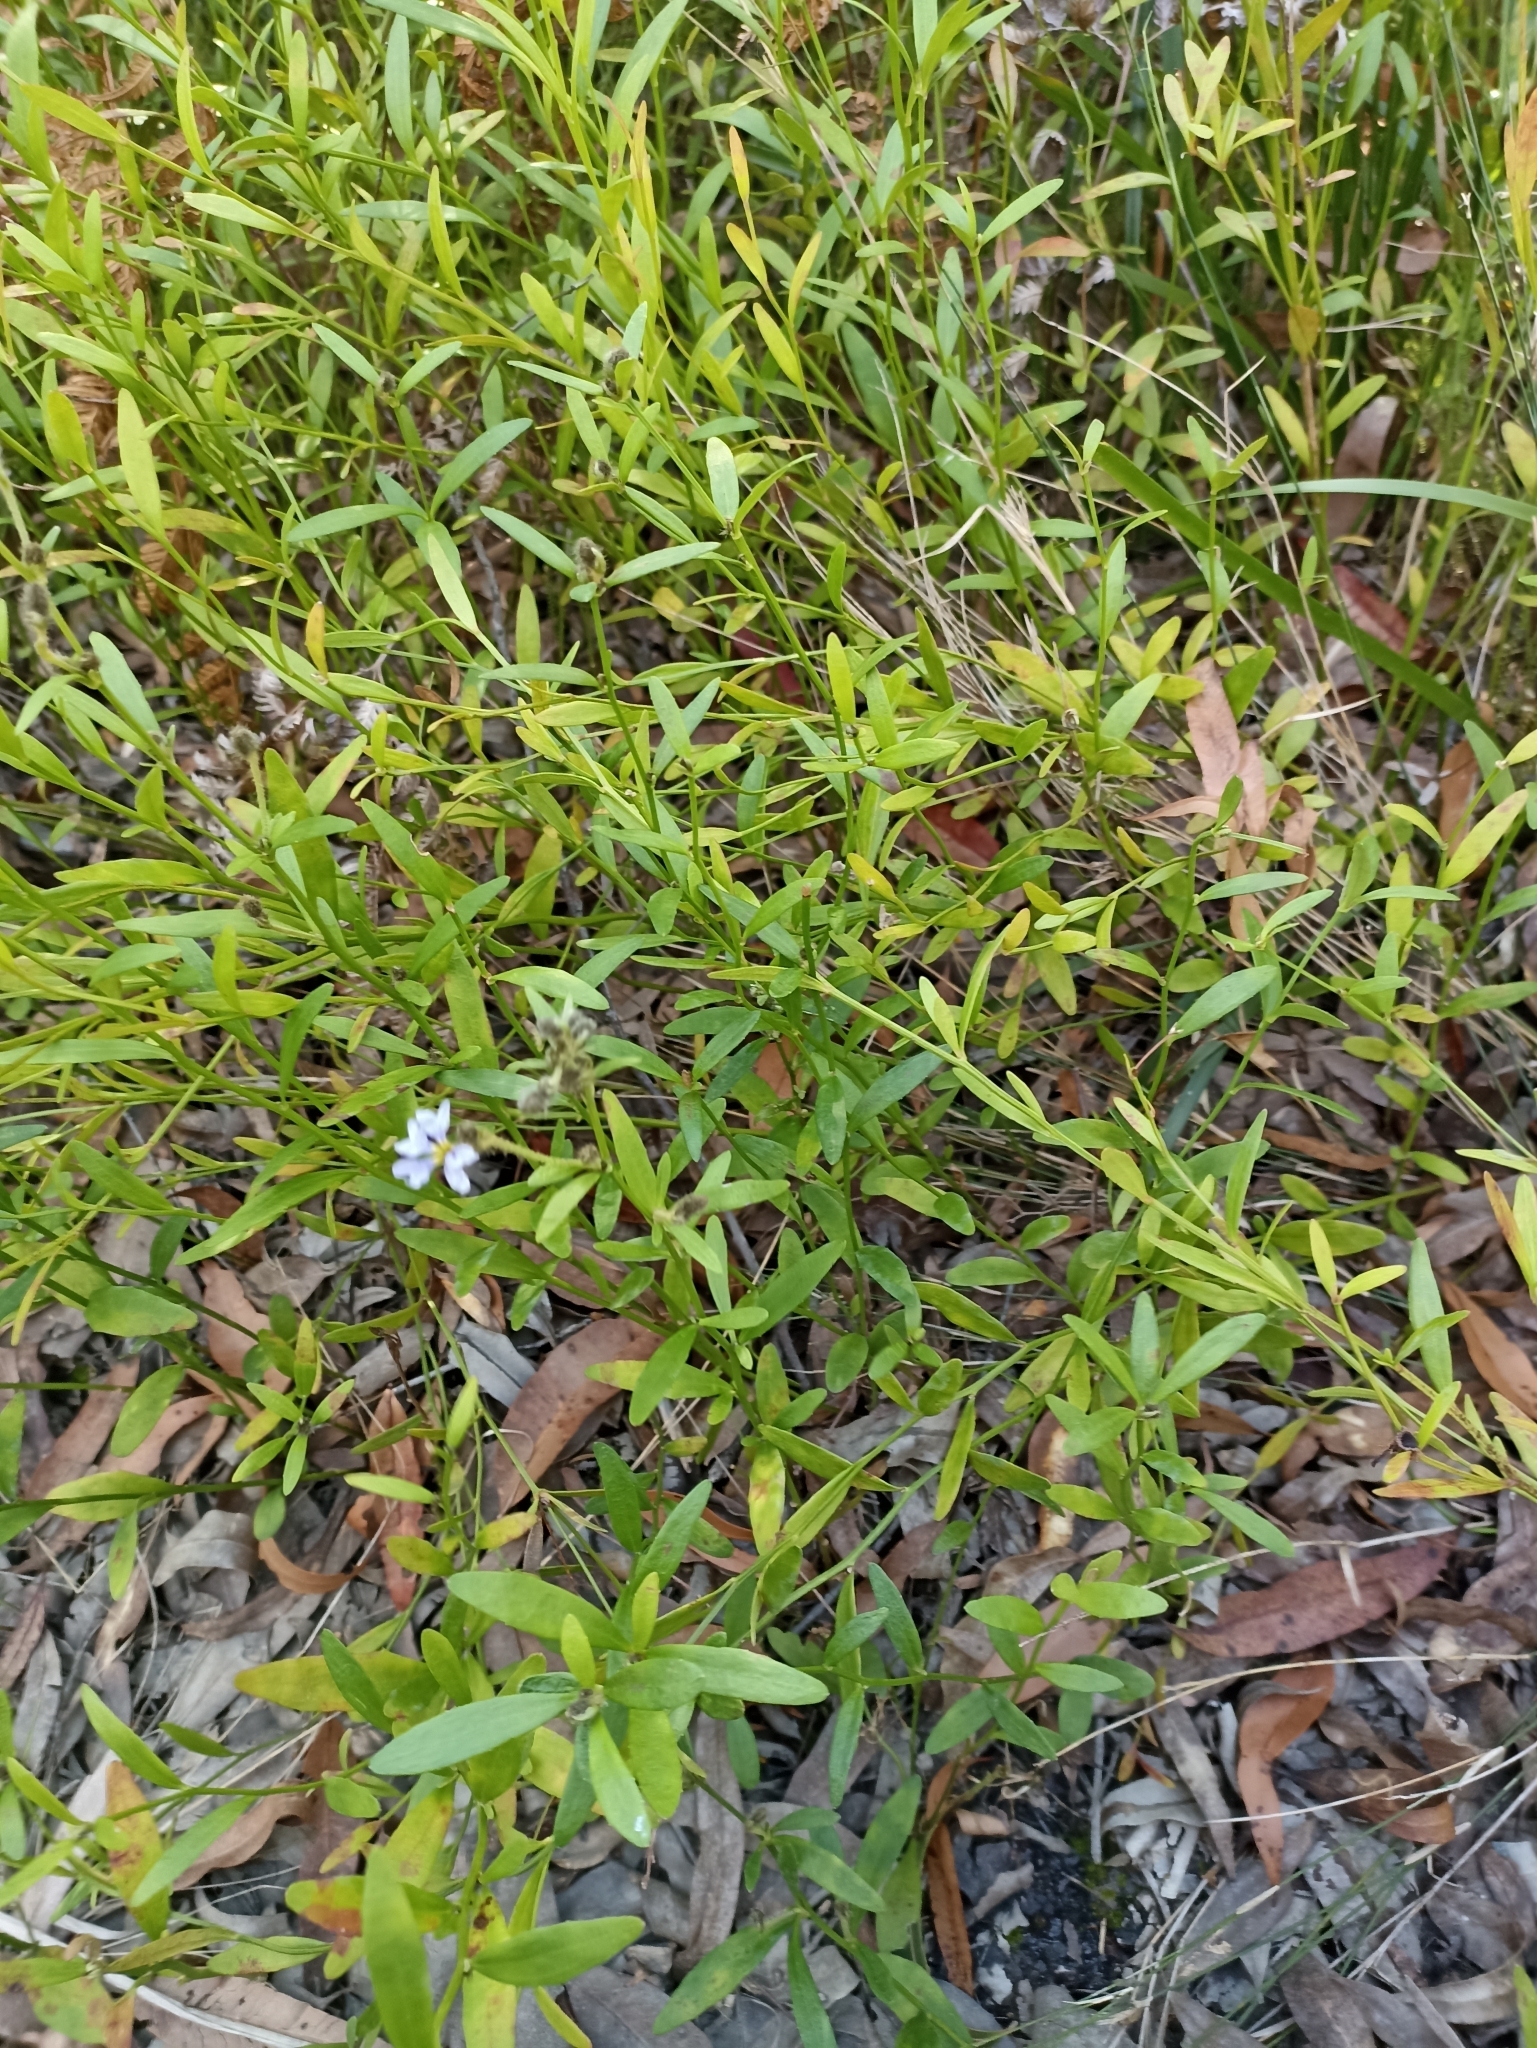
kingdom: Plantae
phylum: Tracheophyta
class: Magnoliopsida
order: Asterales
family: Goodeniaceae
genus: Dampiera
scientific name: Dampiera stricta
